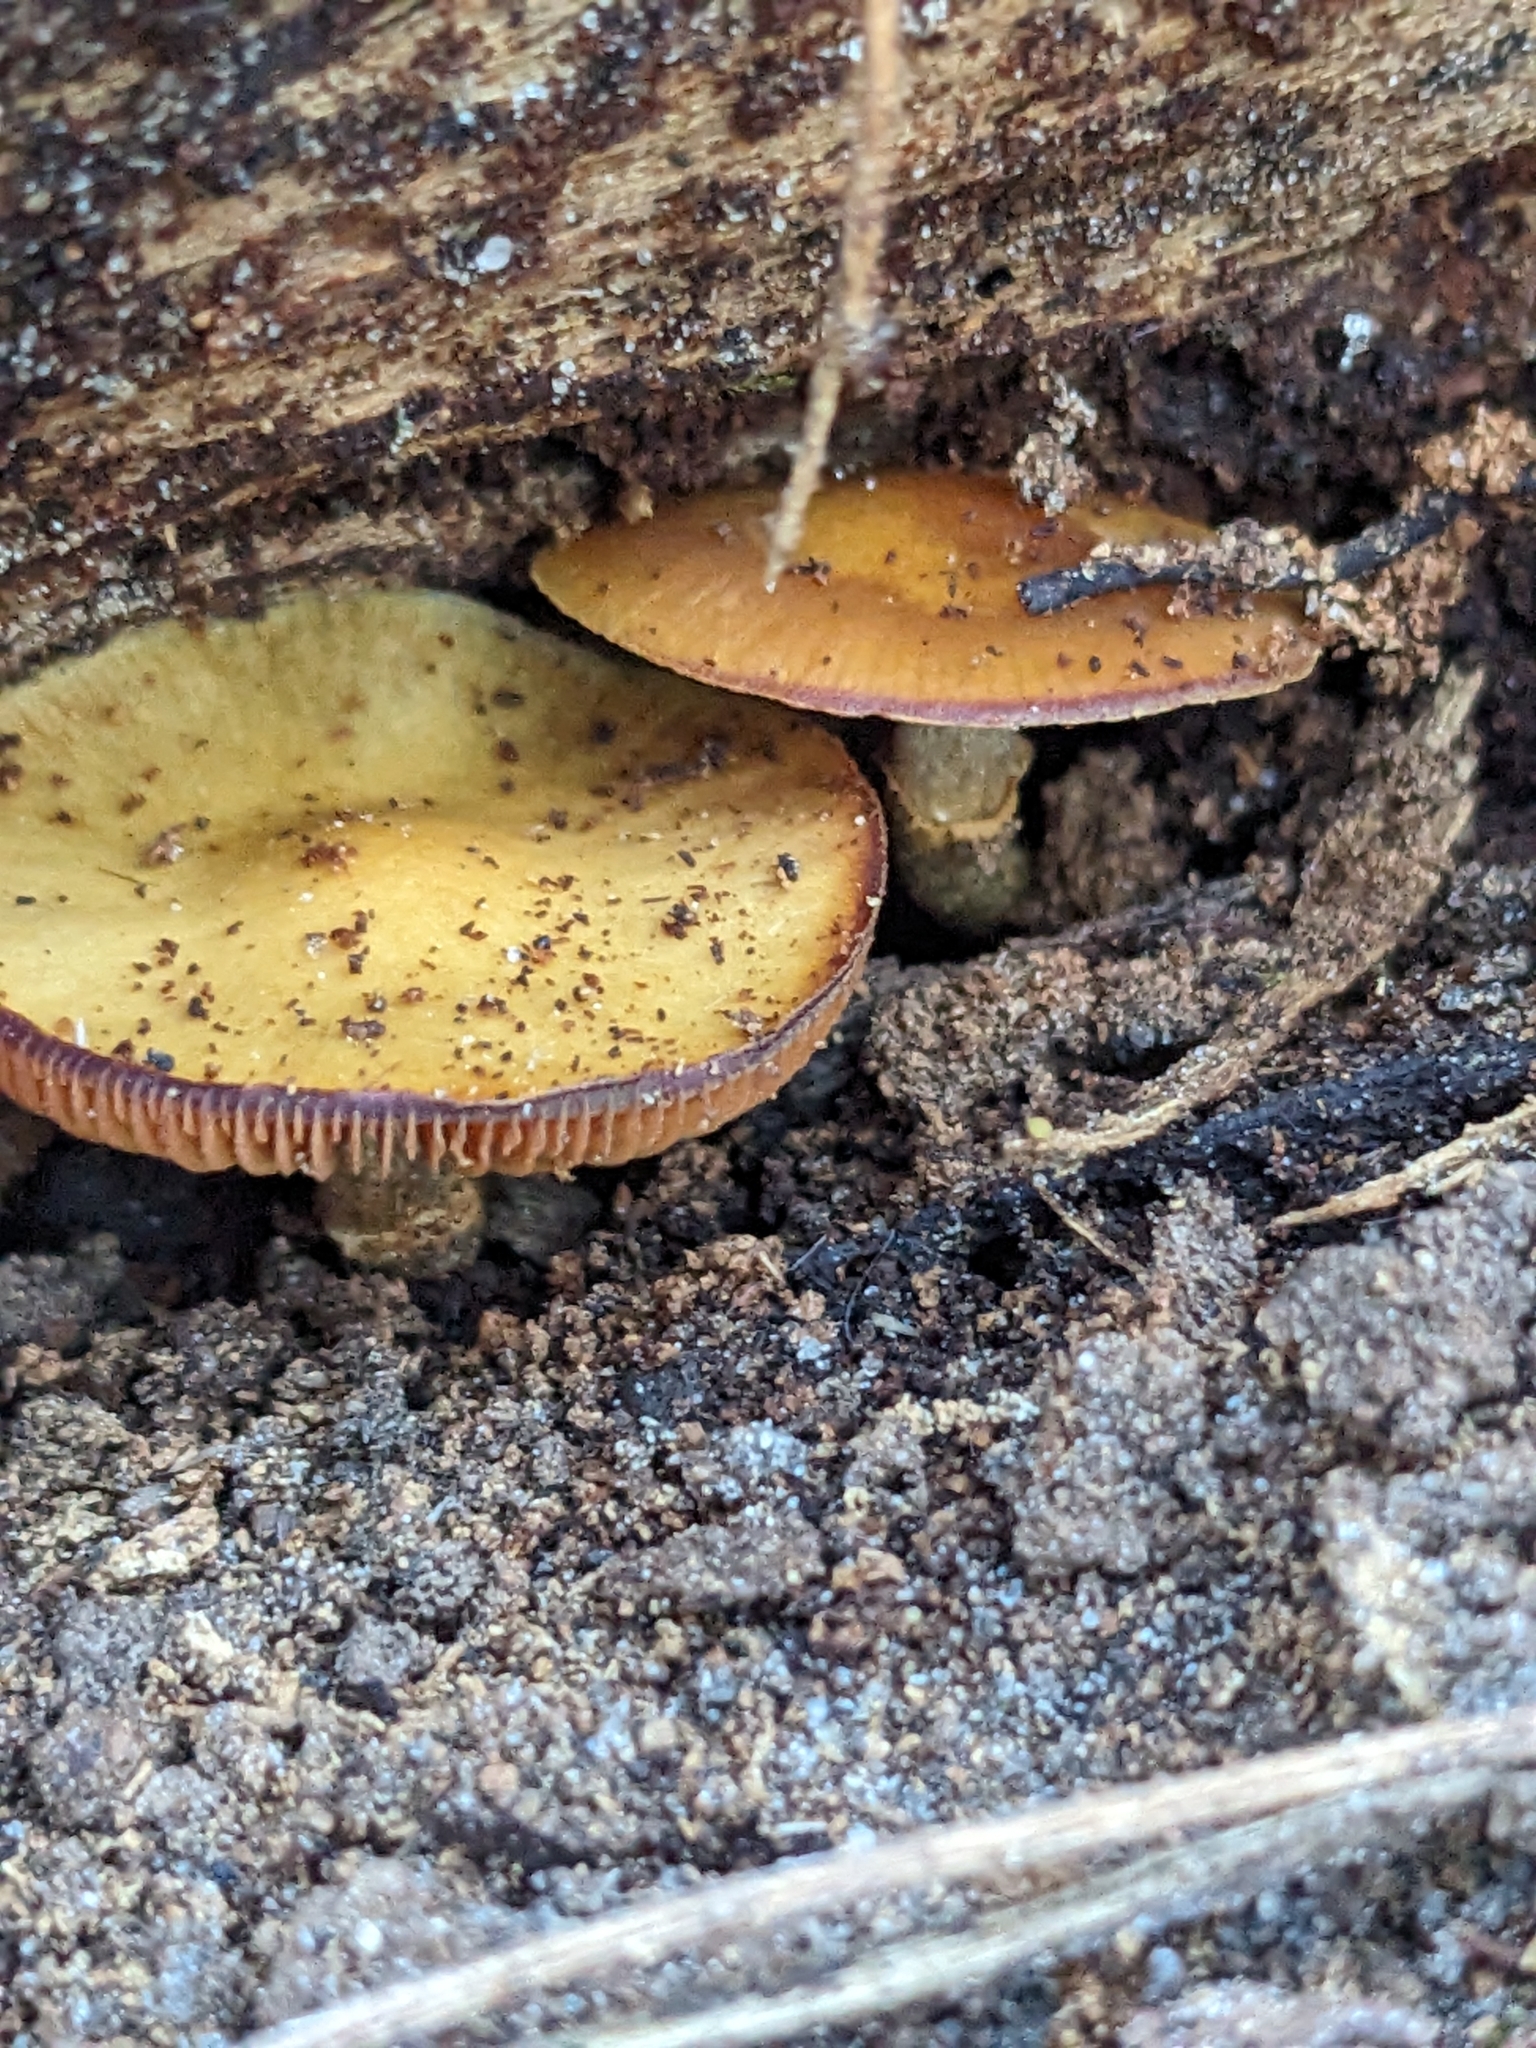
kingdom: Fungi
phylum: Basidiomycota
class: Agaricomycetes
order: Agaricales
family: Hymenogastraceae
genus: Galerina
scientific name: Galerina marginata
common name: Funeral bell
